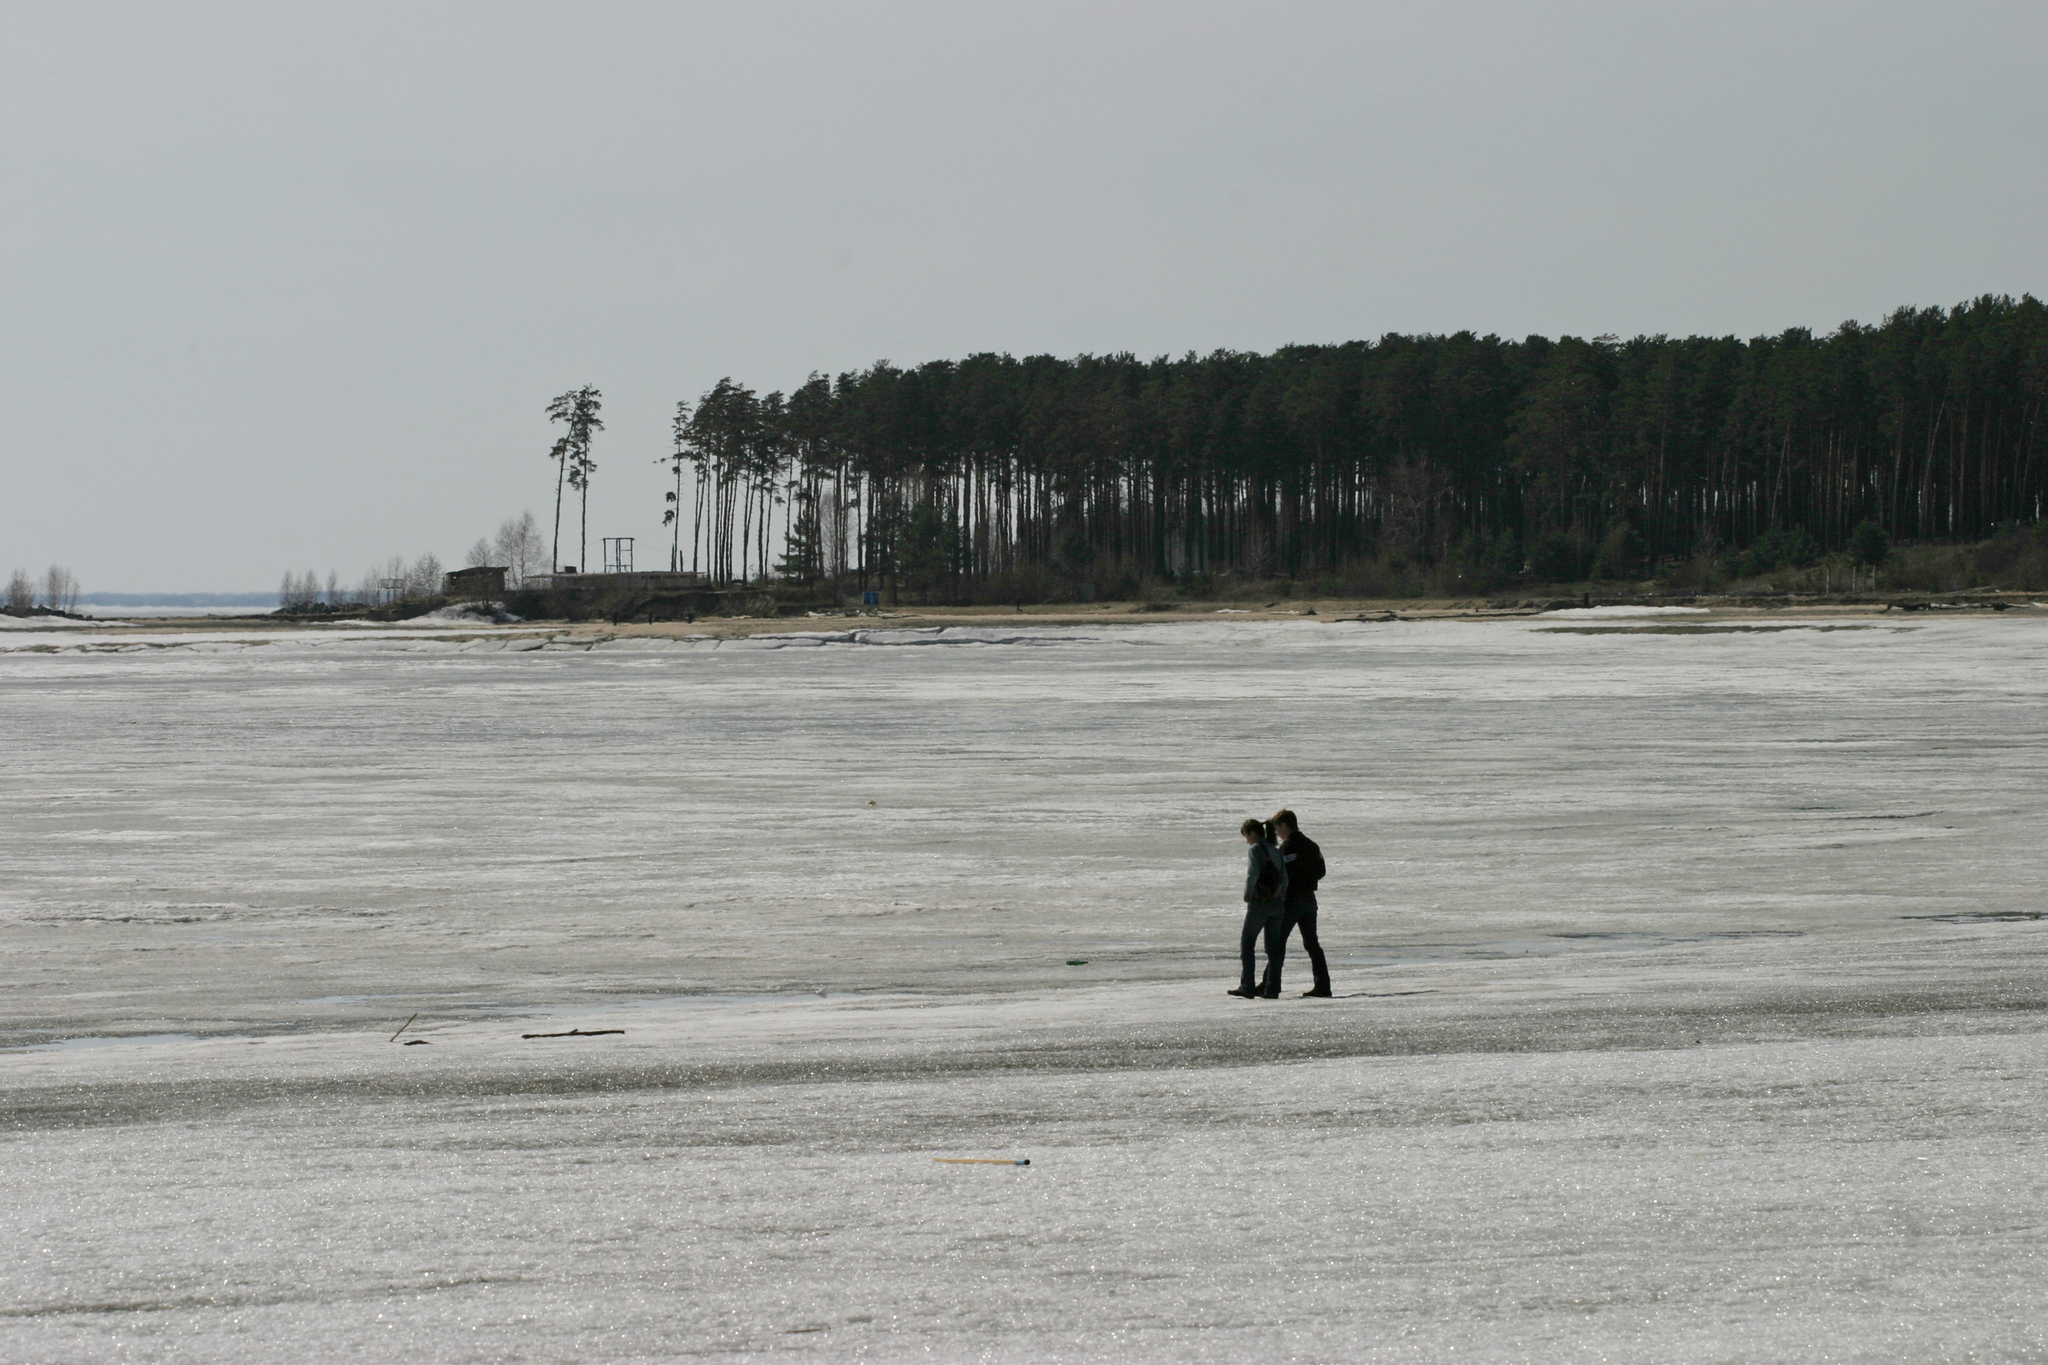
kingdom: Plantae
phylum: Tracheophyta
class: Pinopsida
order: Pinales
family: Pinaceae
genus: Pinus
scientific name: Pinus sylvestris
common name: Scots pine
